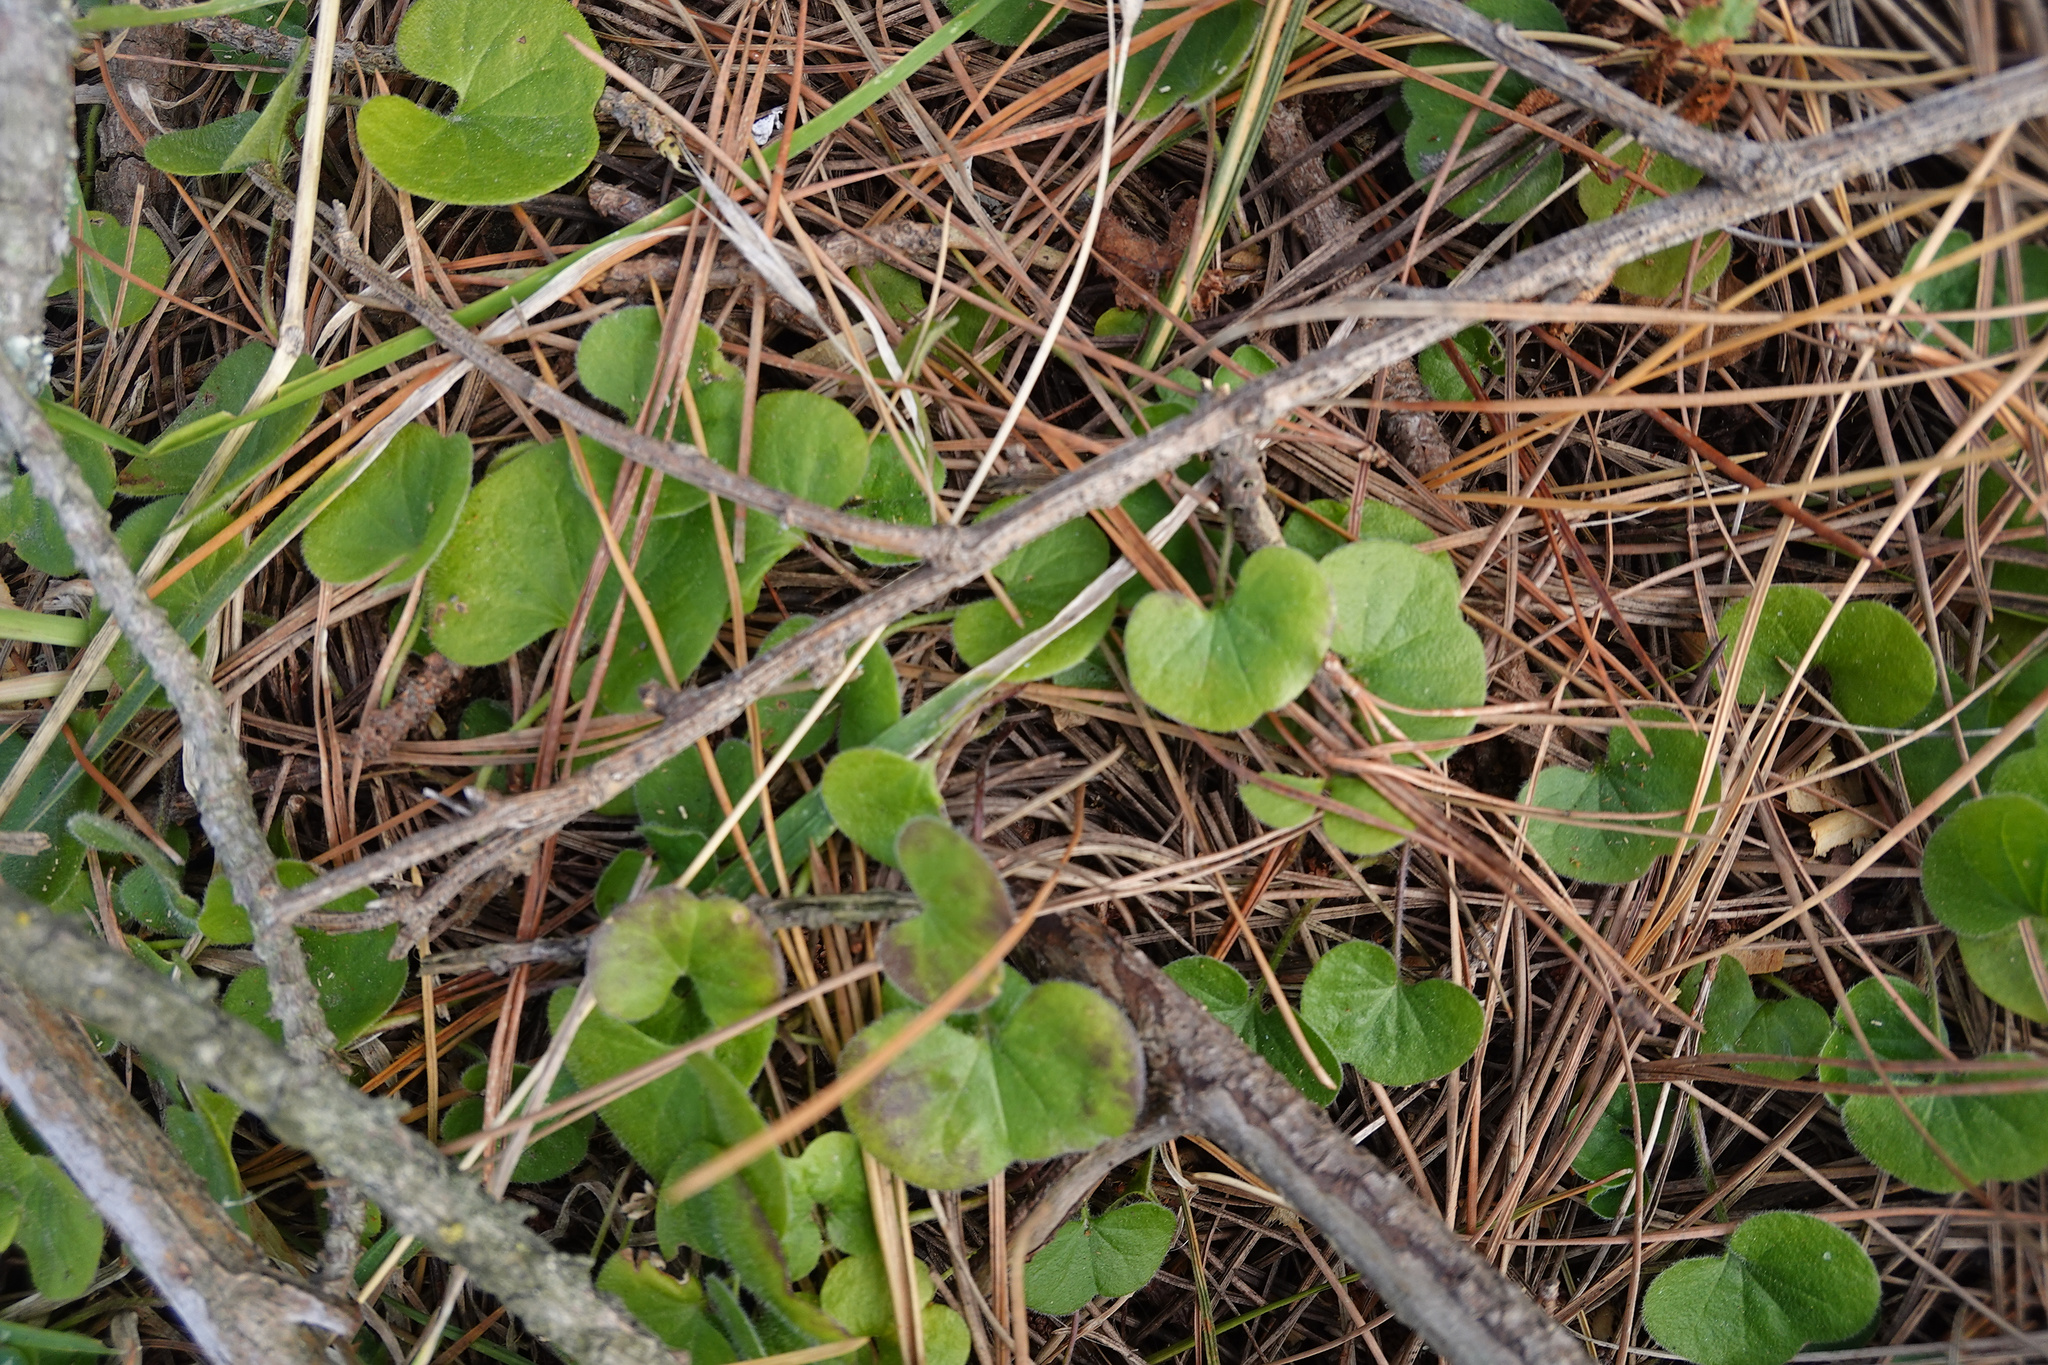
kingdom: Plantae
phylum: Tracheophyta
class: Magnoliopsida
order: Solanales
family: Convolvulaceae
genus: Dichondra
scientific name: Dichondra repens
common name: Kidneyweed
